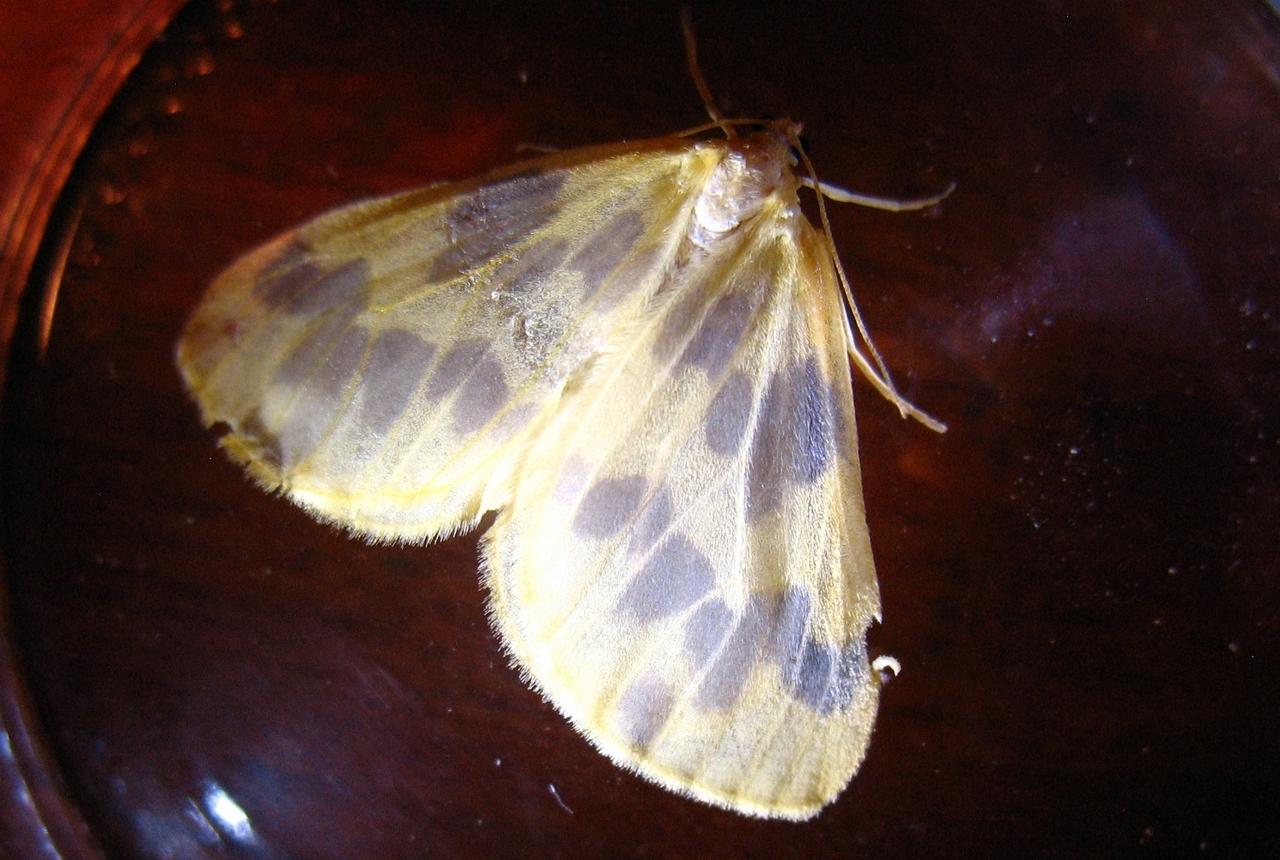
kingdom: Animalia
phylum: Arthropoda
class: Insecta
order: Lepidoptera
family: Geometridae
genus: Eubaphe
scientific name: Eubaphe mendica
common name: Beggar
